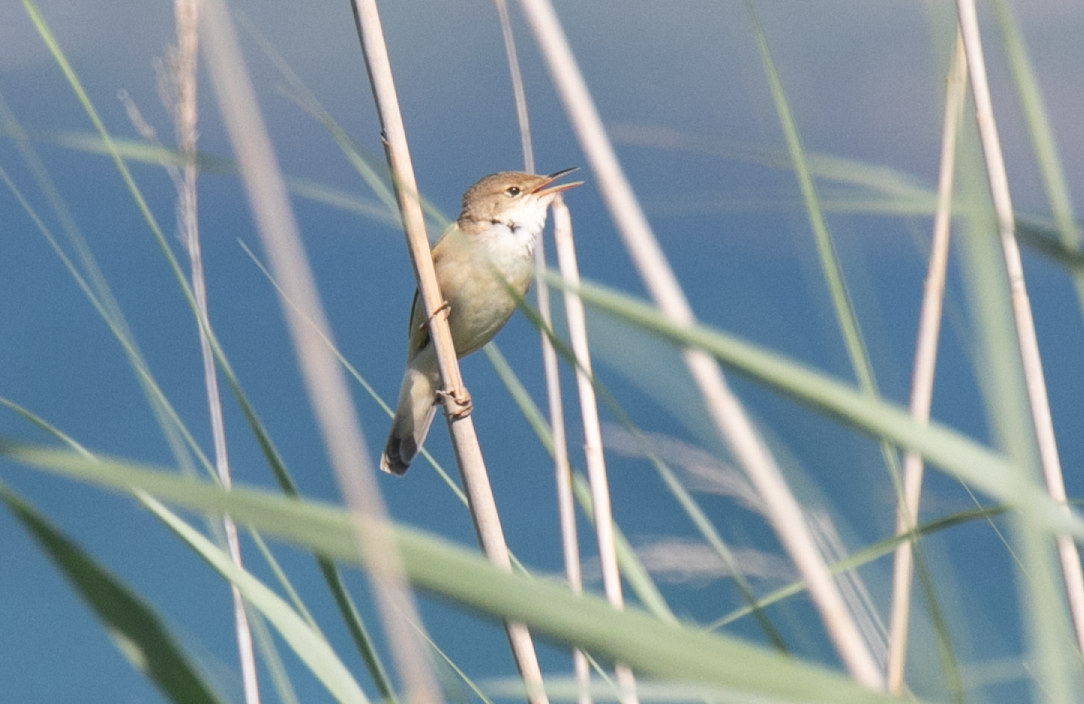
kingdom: Animalia
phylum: Chordata
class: Aves
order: Passeriformes
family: Acrocephalidae
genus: Acrocephalus
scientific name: Acrocephalus scirpaceus
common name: Eurasian reed warbler
